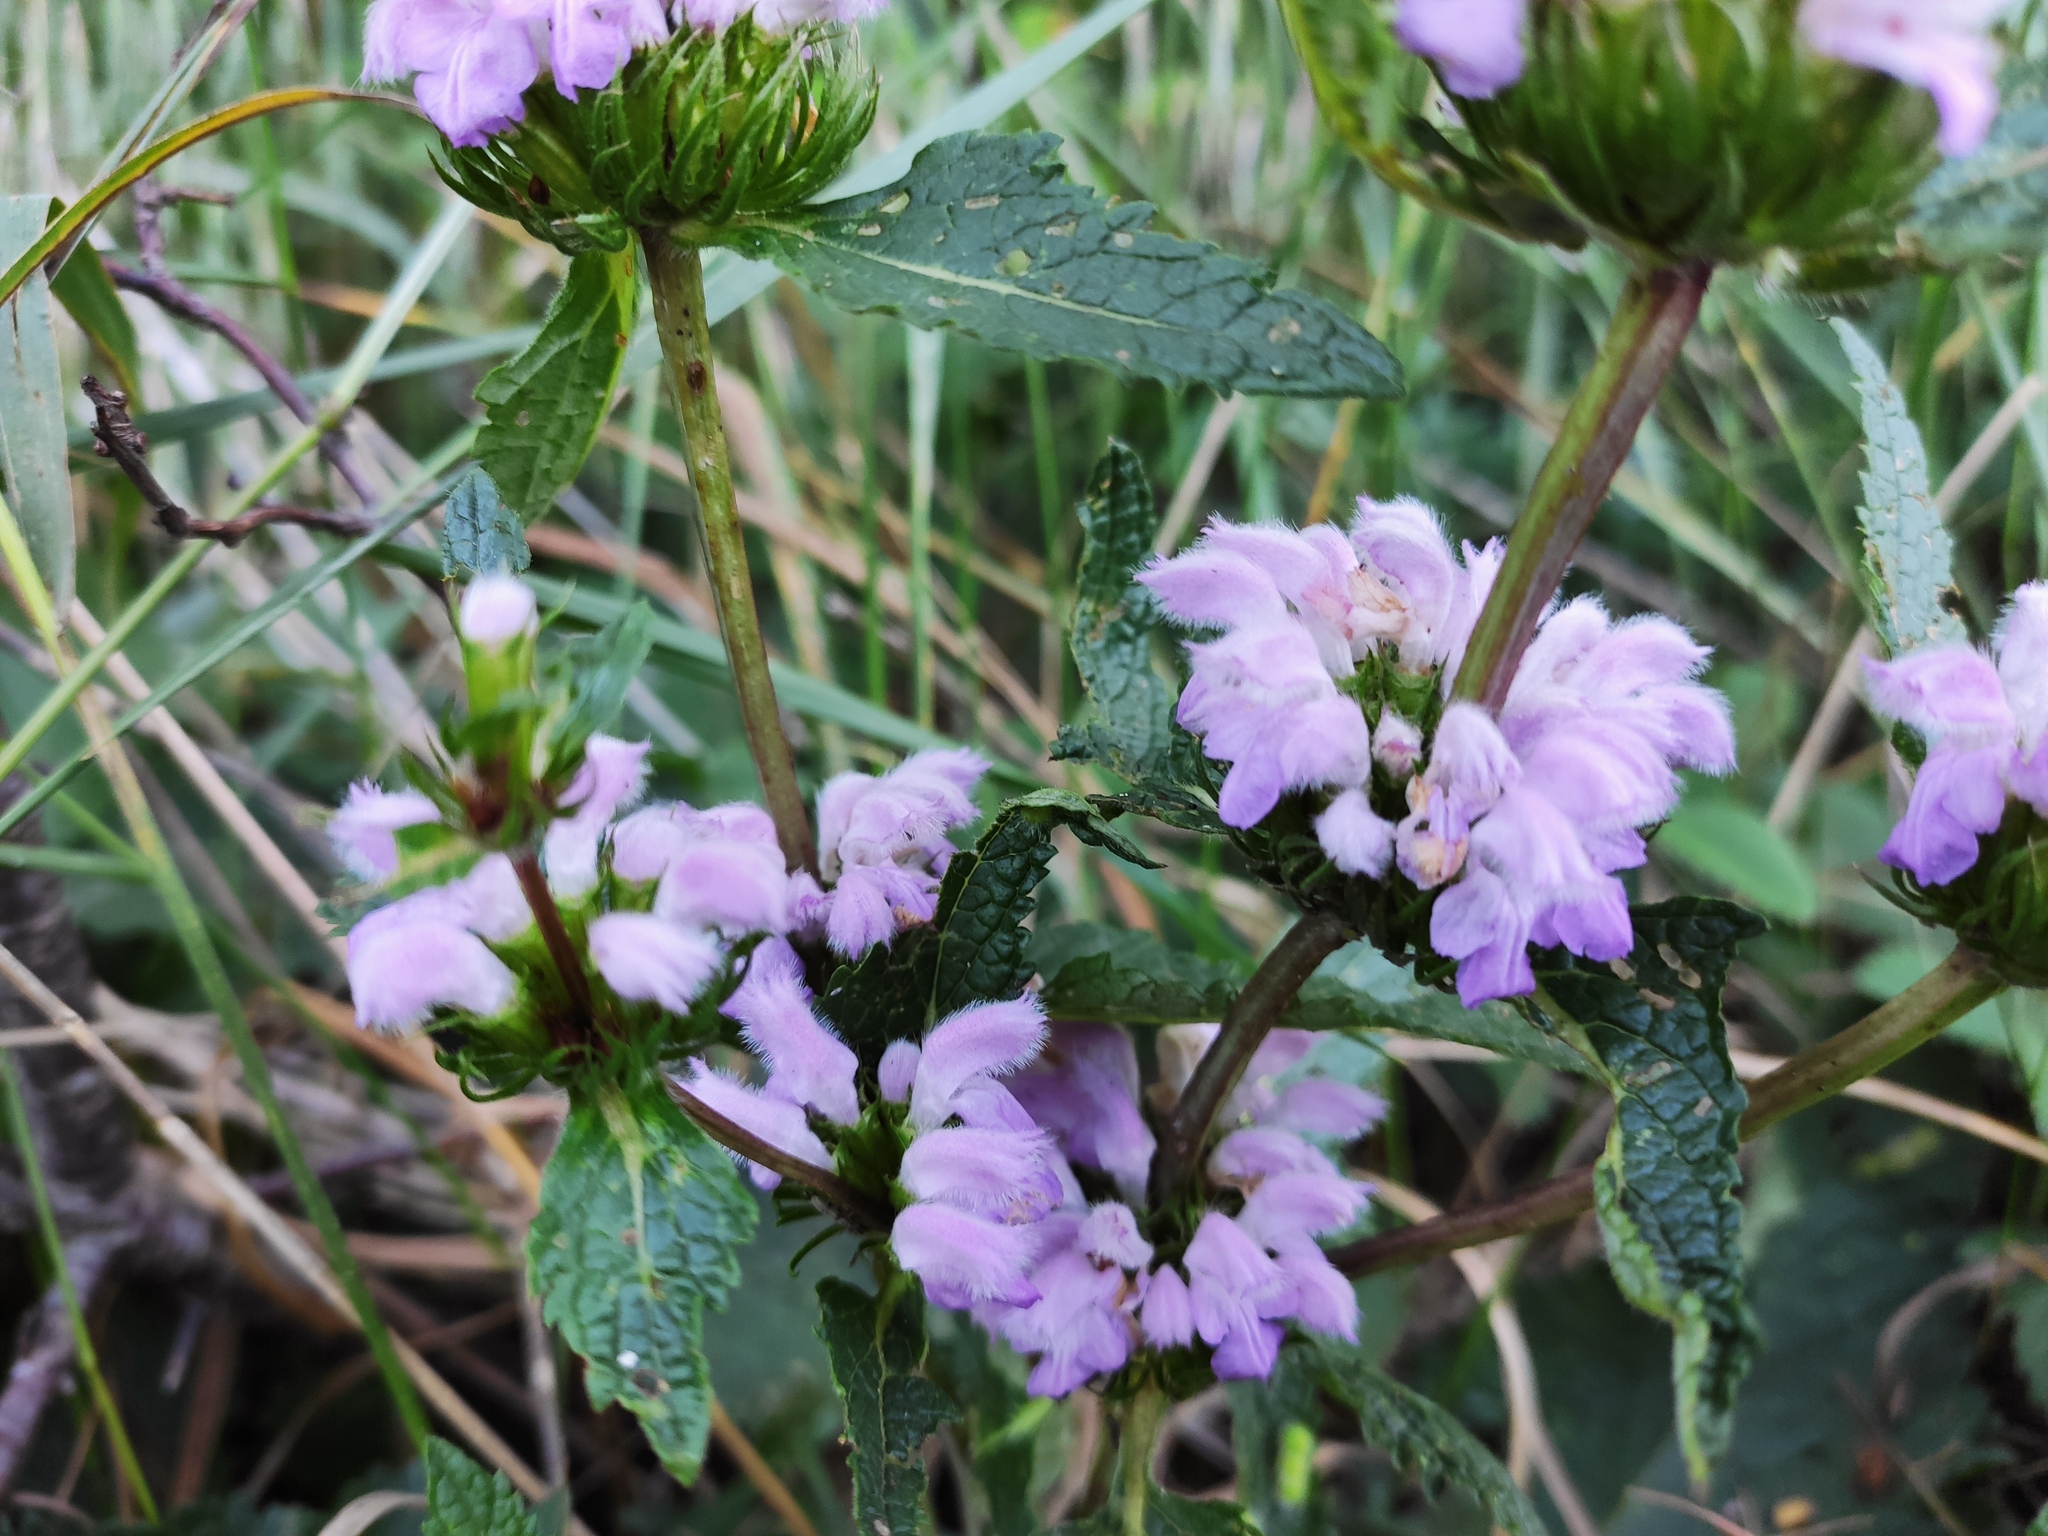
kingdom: Plantae
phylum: Tracheophyta
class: Magnoliopsida
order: Lamiales
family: Lamiaceae
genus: Phlomoides
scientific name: Phlomoides tuberosa
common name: Tuberous jerusalem sage
